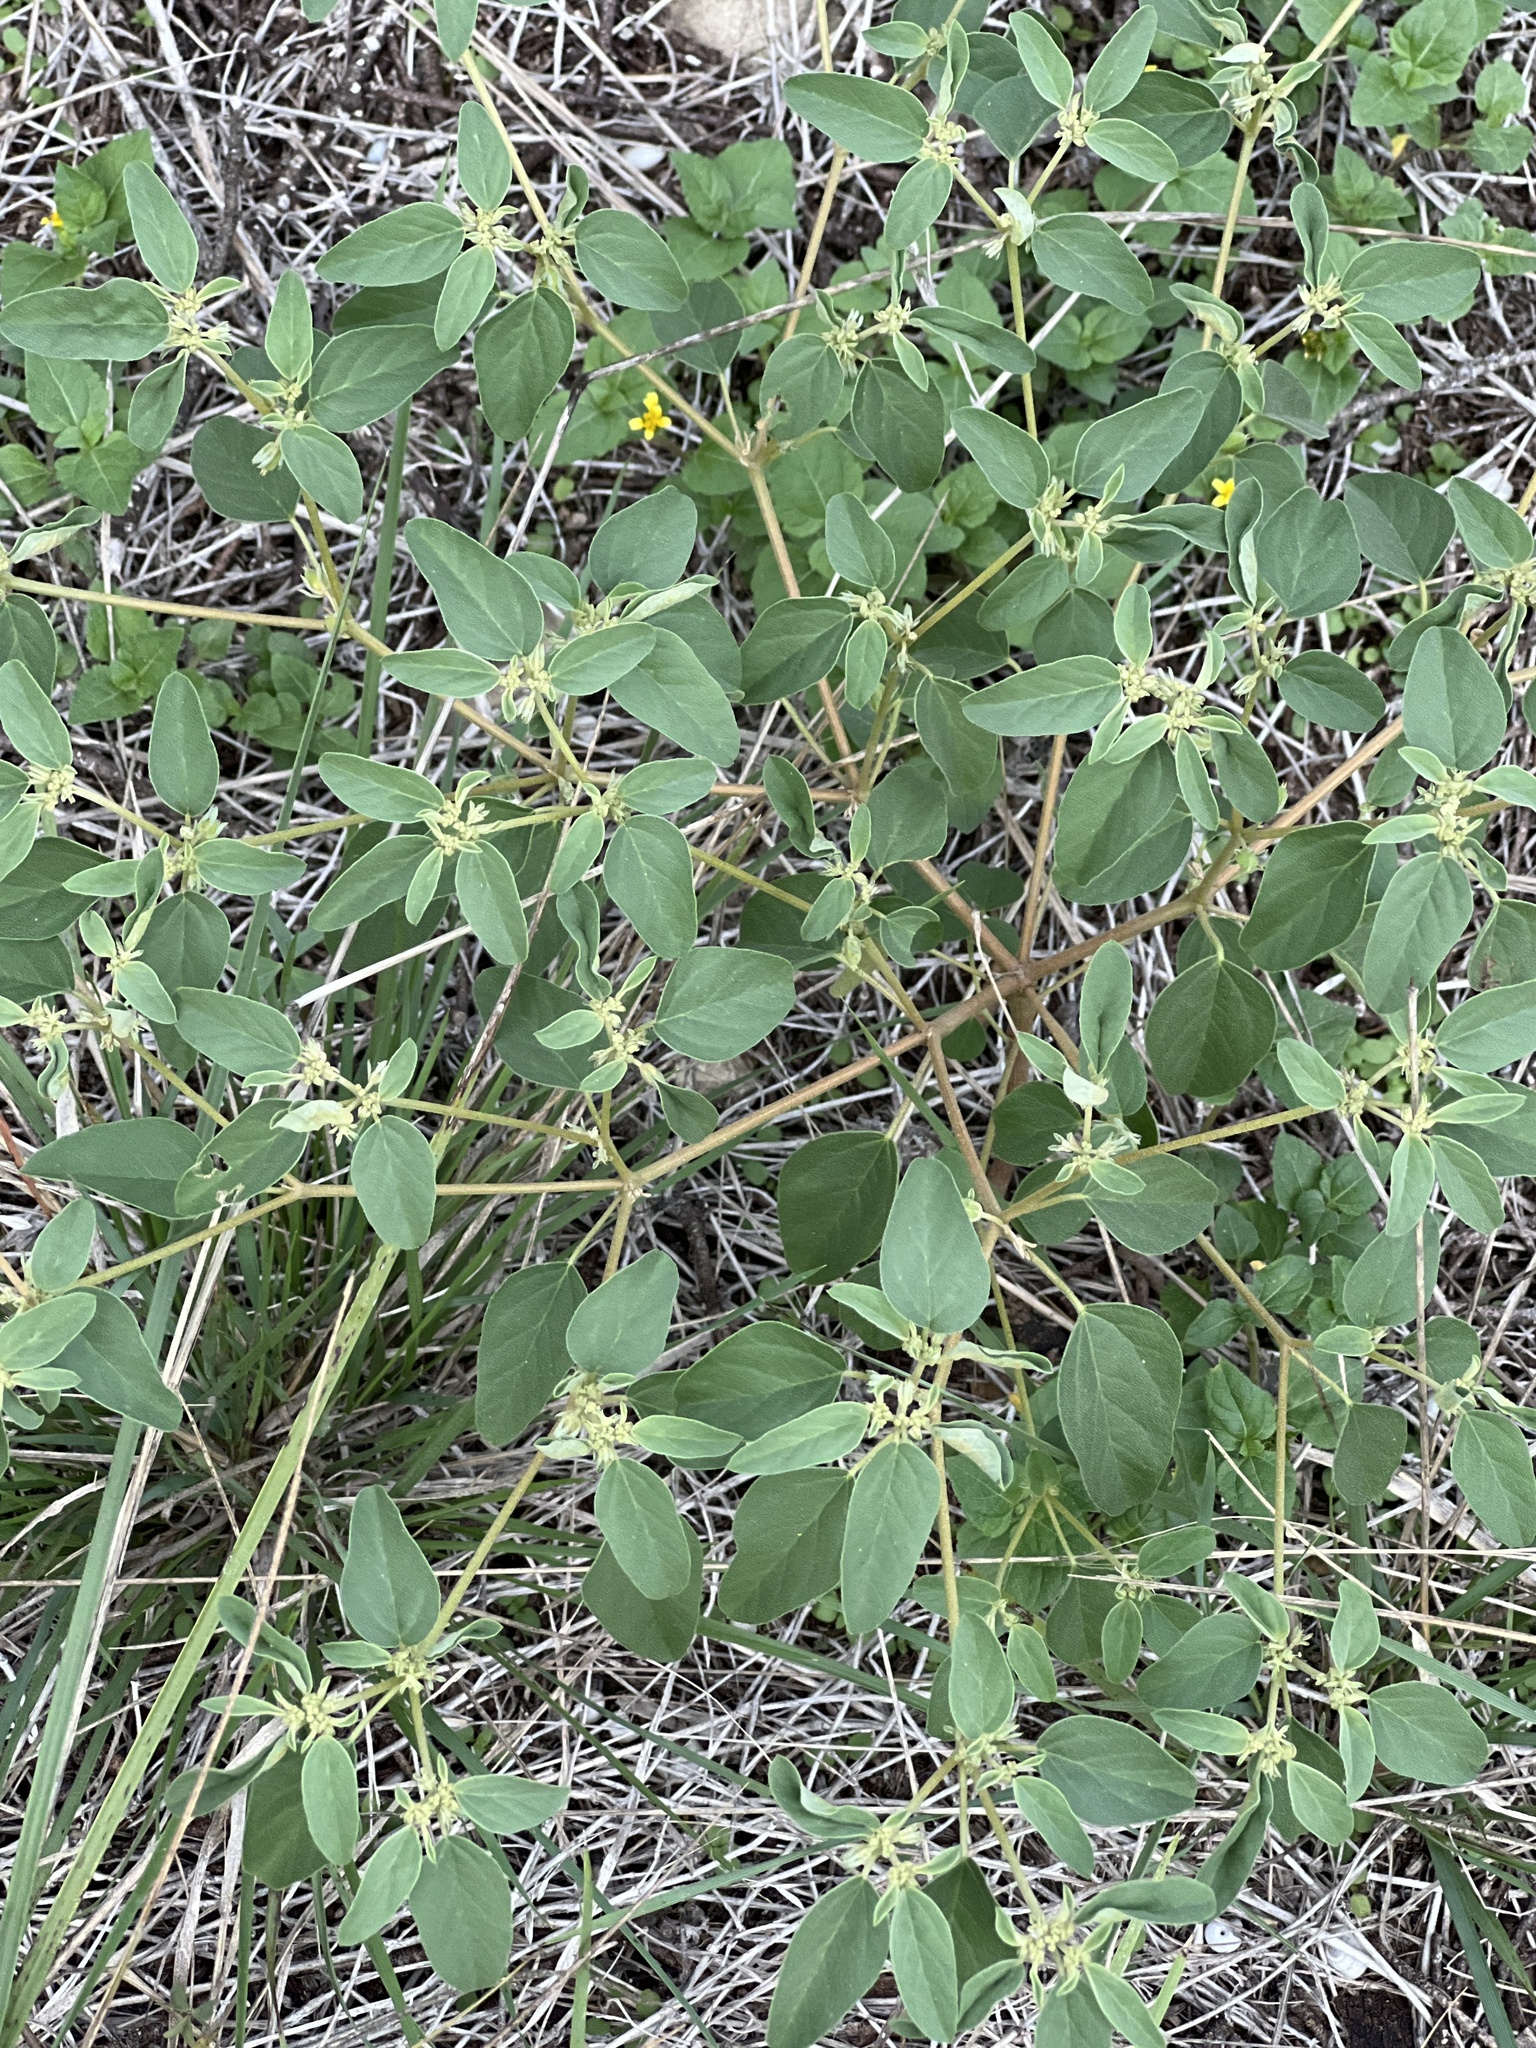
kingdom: Plantae
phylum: Tracheophyta
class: Magnoliopsida
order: Malpighiales
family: Euphorbiaceae
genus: Croton
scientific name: Croton monanthogynus
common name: One-seed croton
